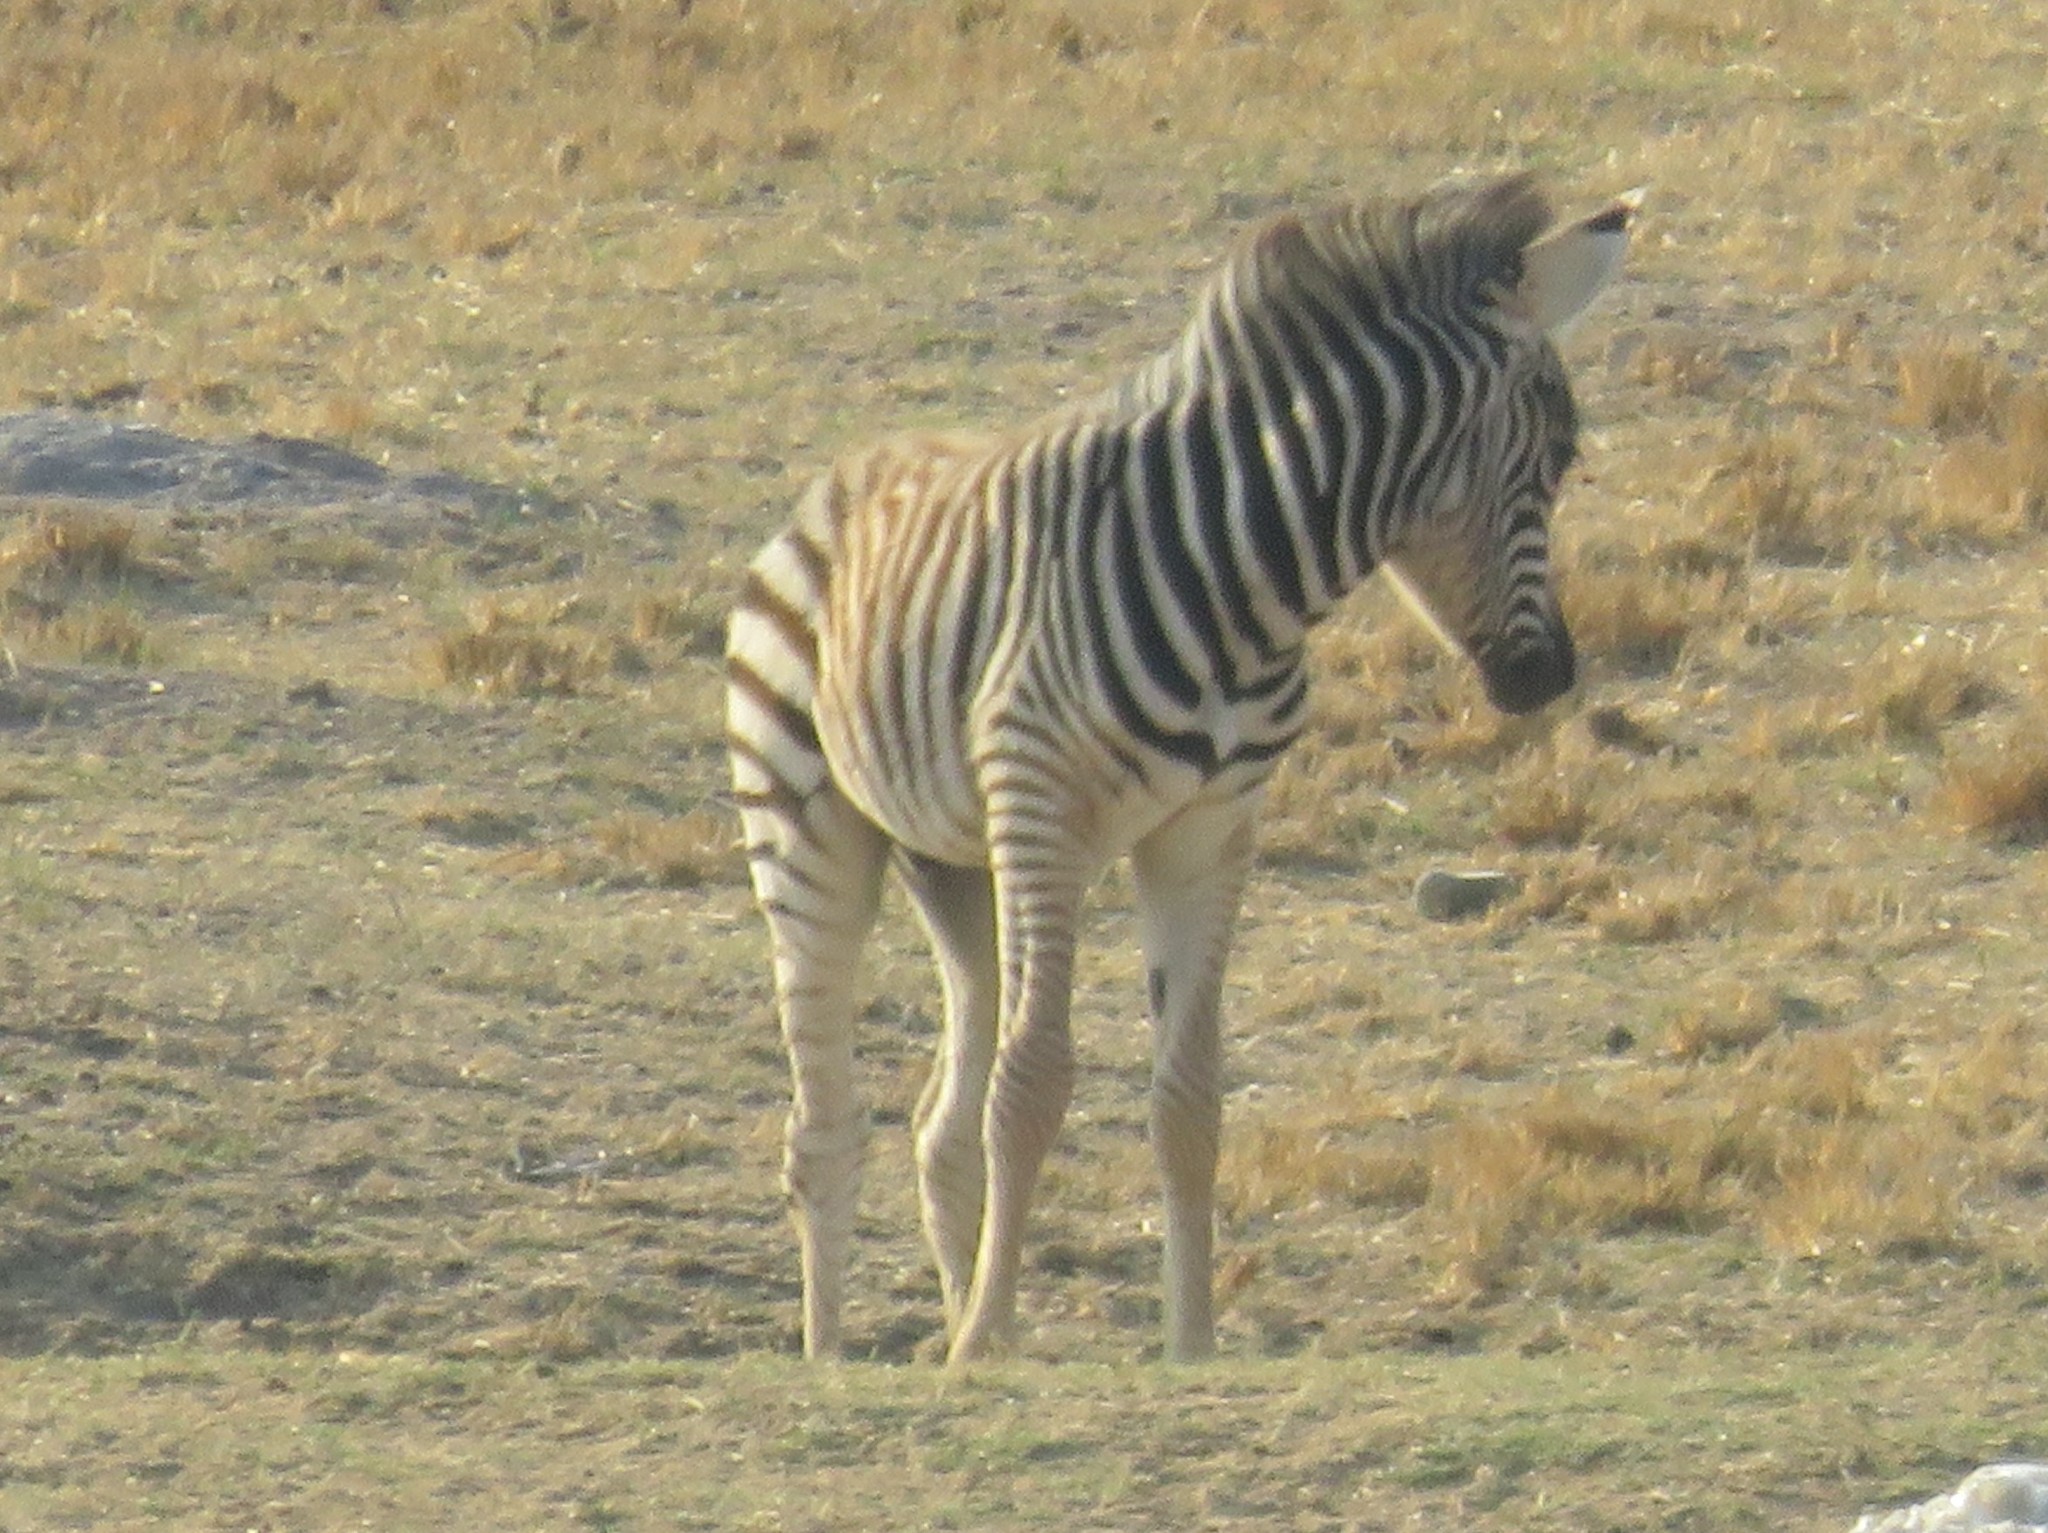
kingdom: Animalia
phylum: Chordata
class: Mammalia
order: Perissodactyla
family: Equidae
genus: Equus
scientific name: Equus quagga
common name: Plains zebra
